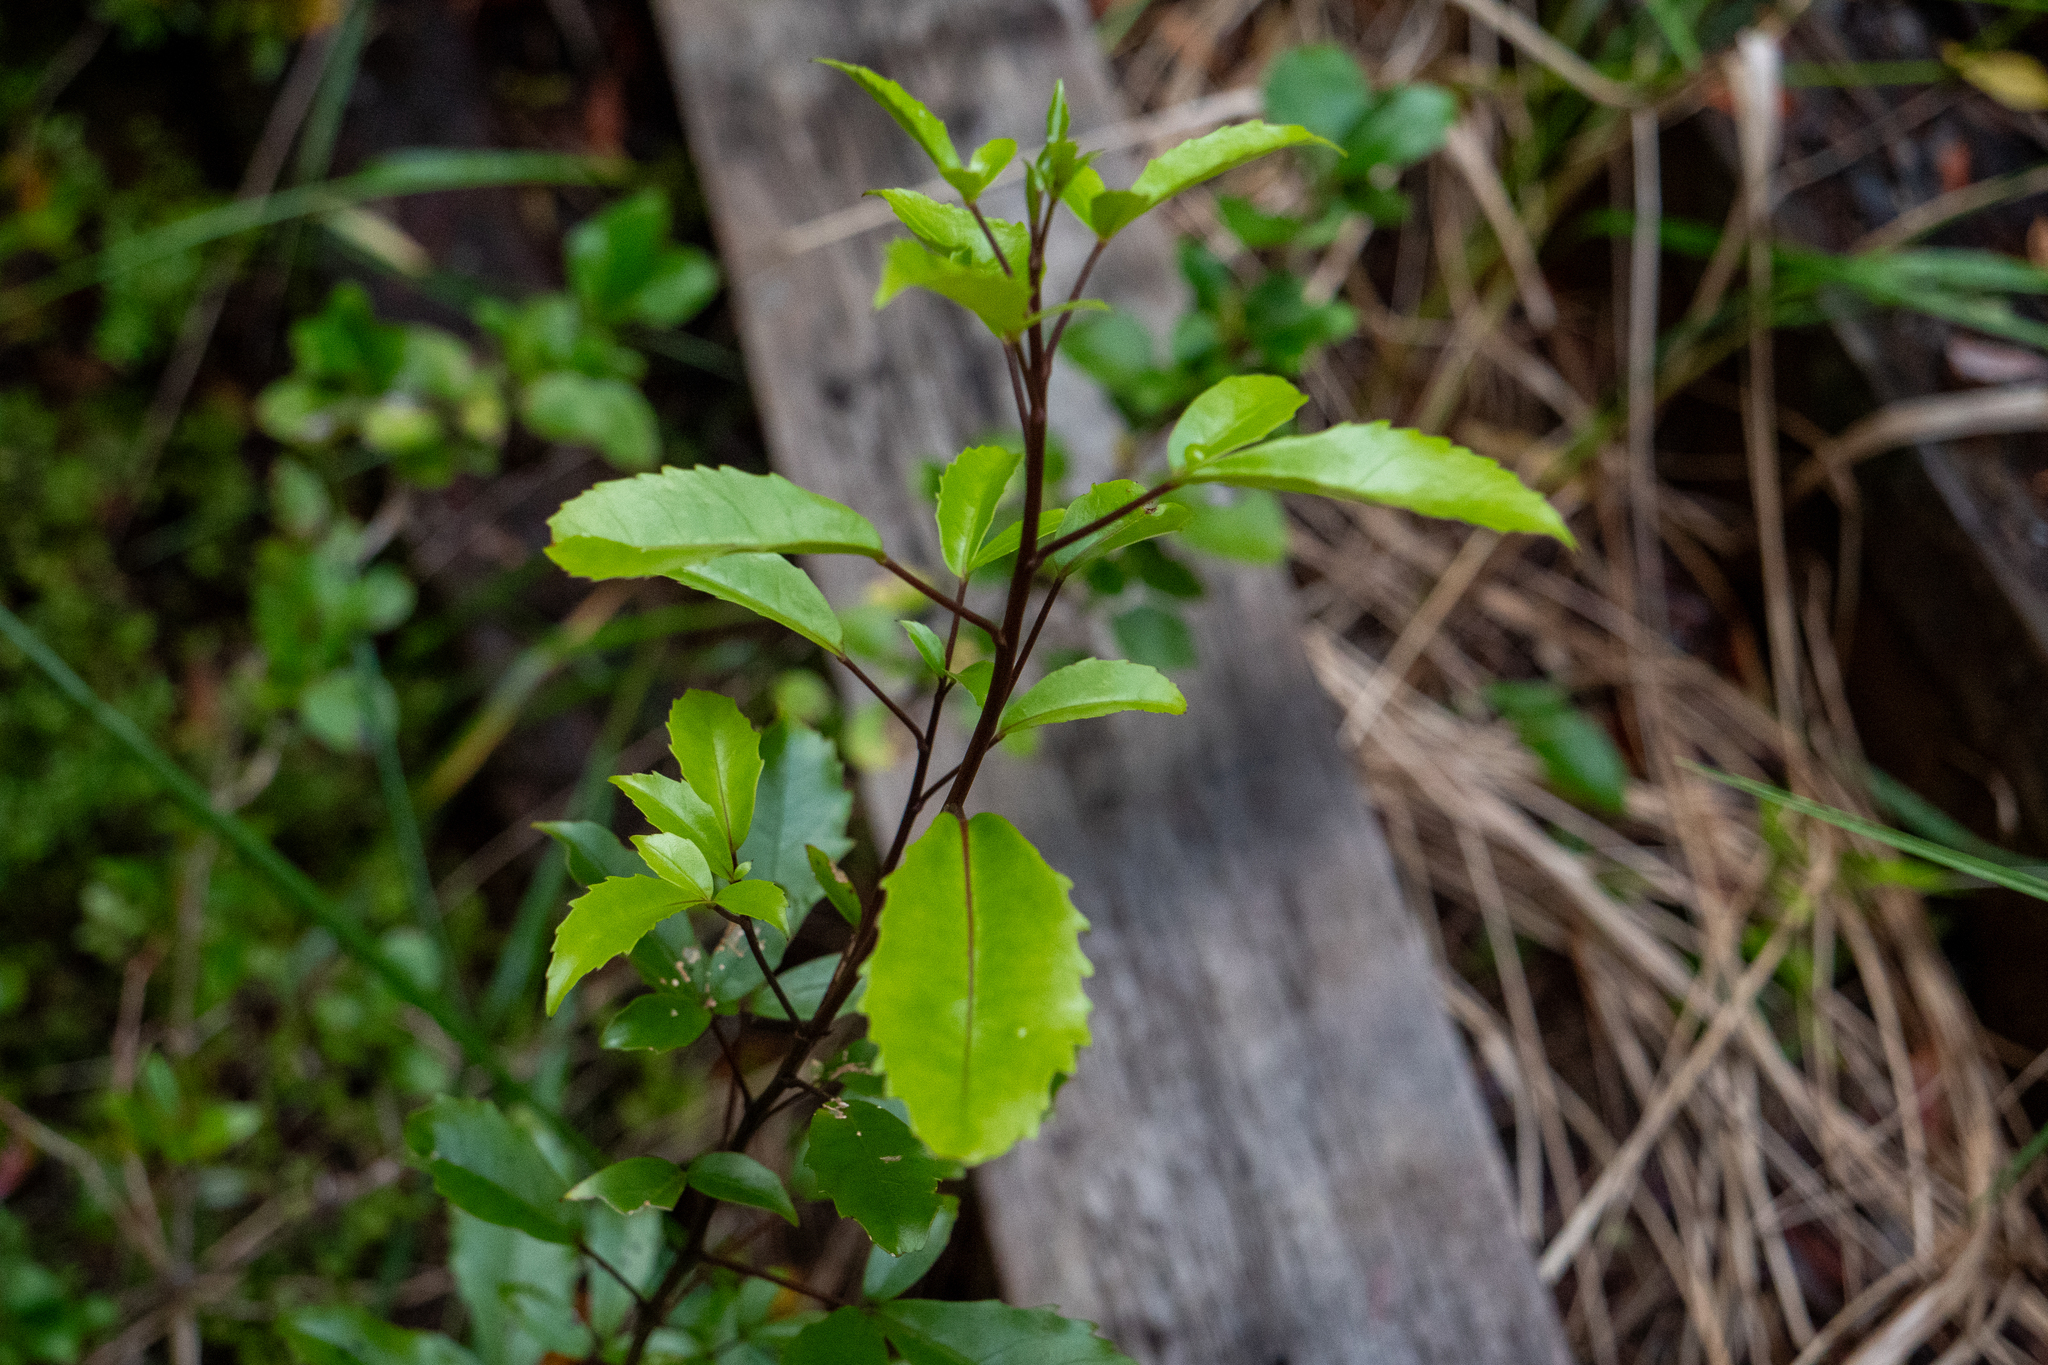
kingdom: Plantae
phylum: Tracheophyta
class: Magnoliopsida
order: Apiales
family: Araliaceae
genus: Raukaua
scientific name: Raukaua simplex
